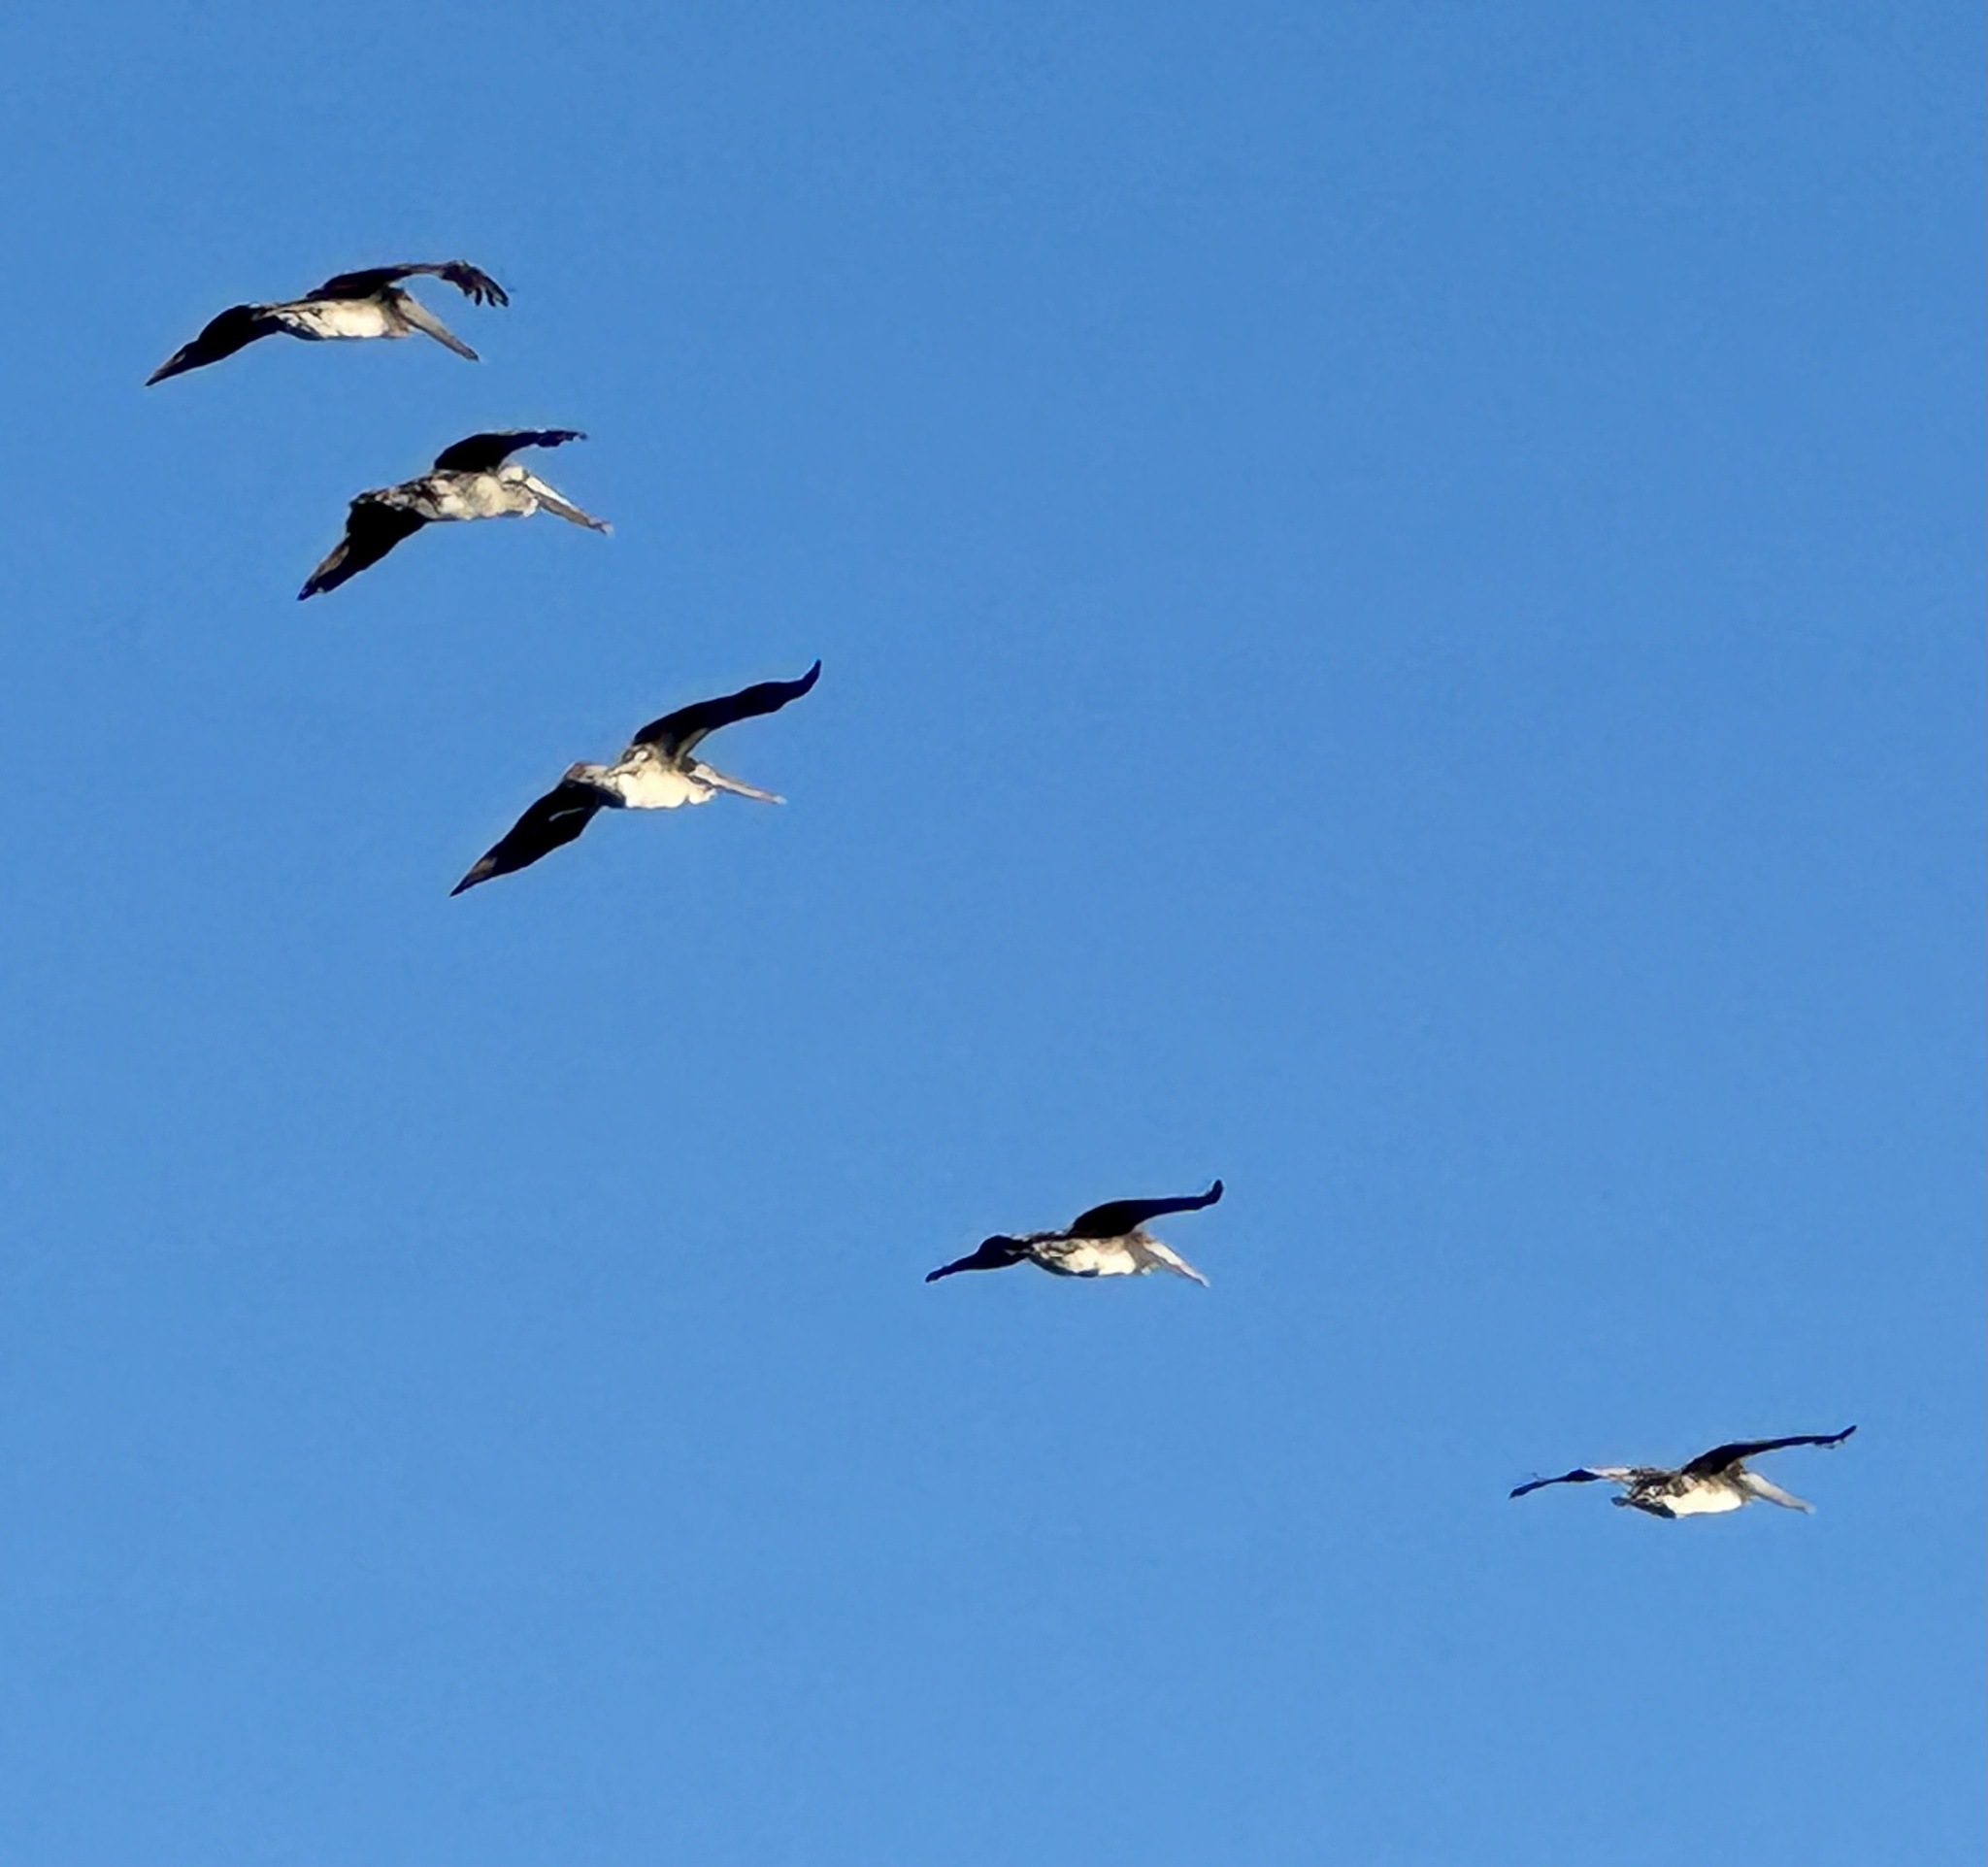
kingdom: Animalia
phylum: Chordata
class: Aves
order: Pelecaniformes
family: Pelecanidae
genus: Pelecanus
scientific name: Pelecanus occidentalis
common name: Brown pelican
